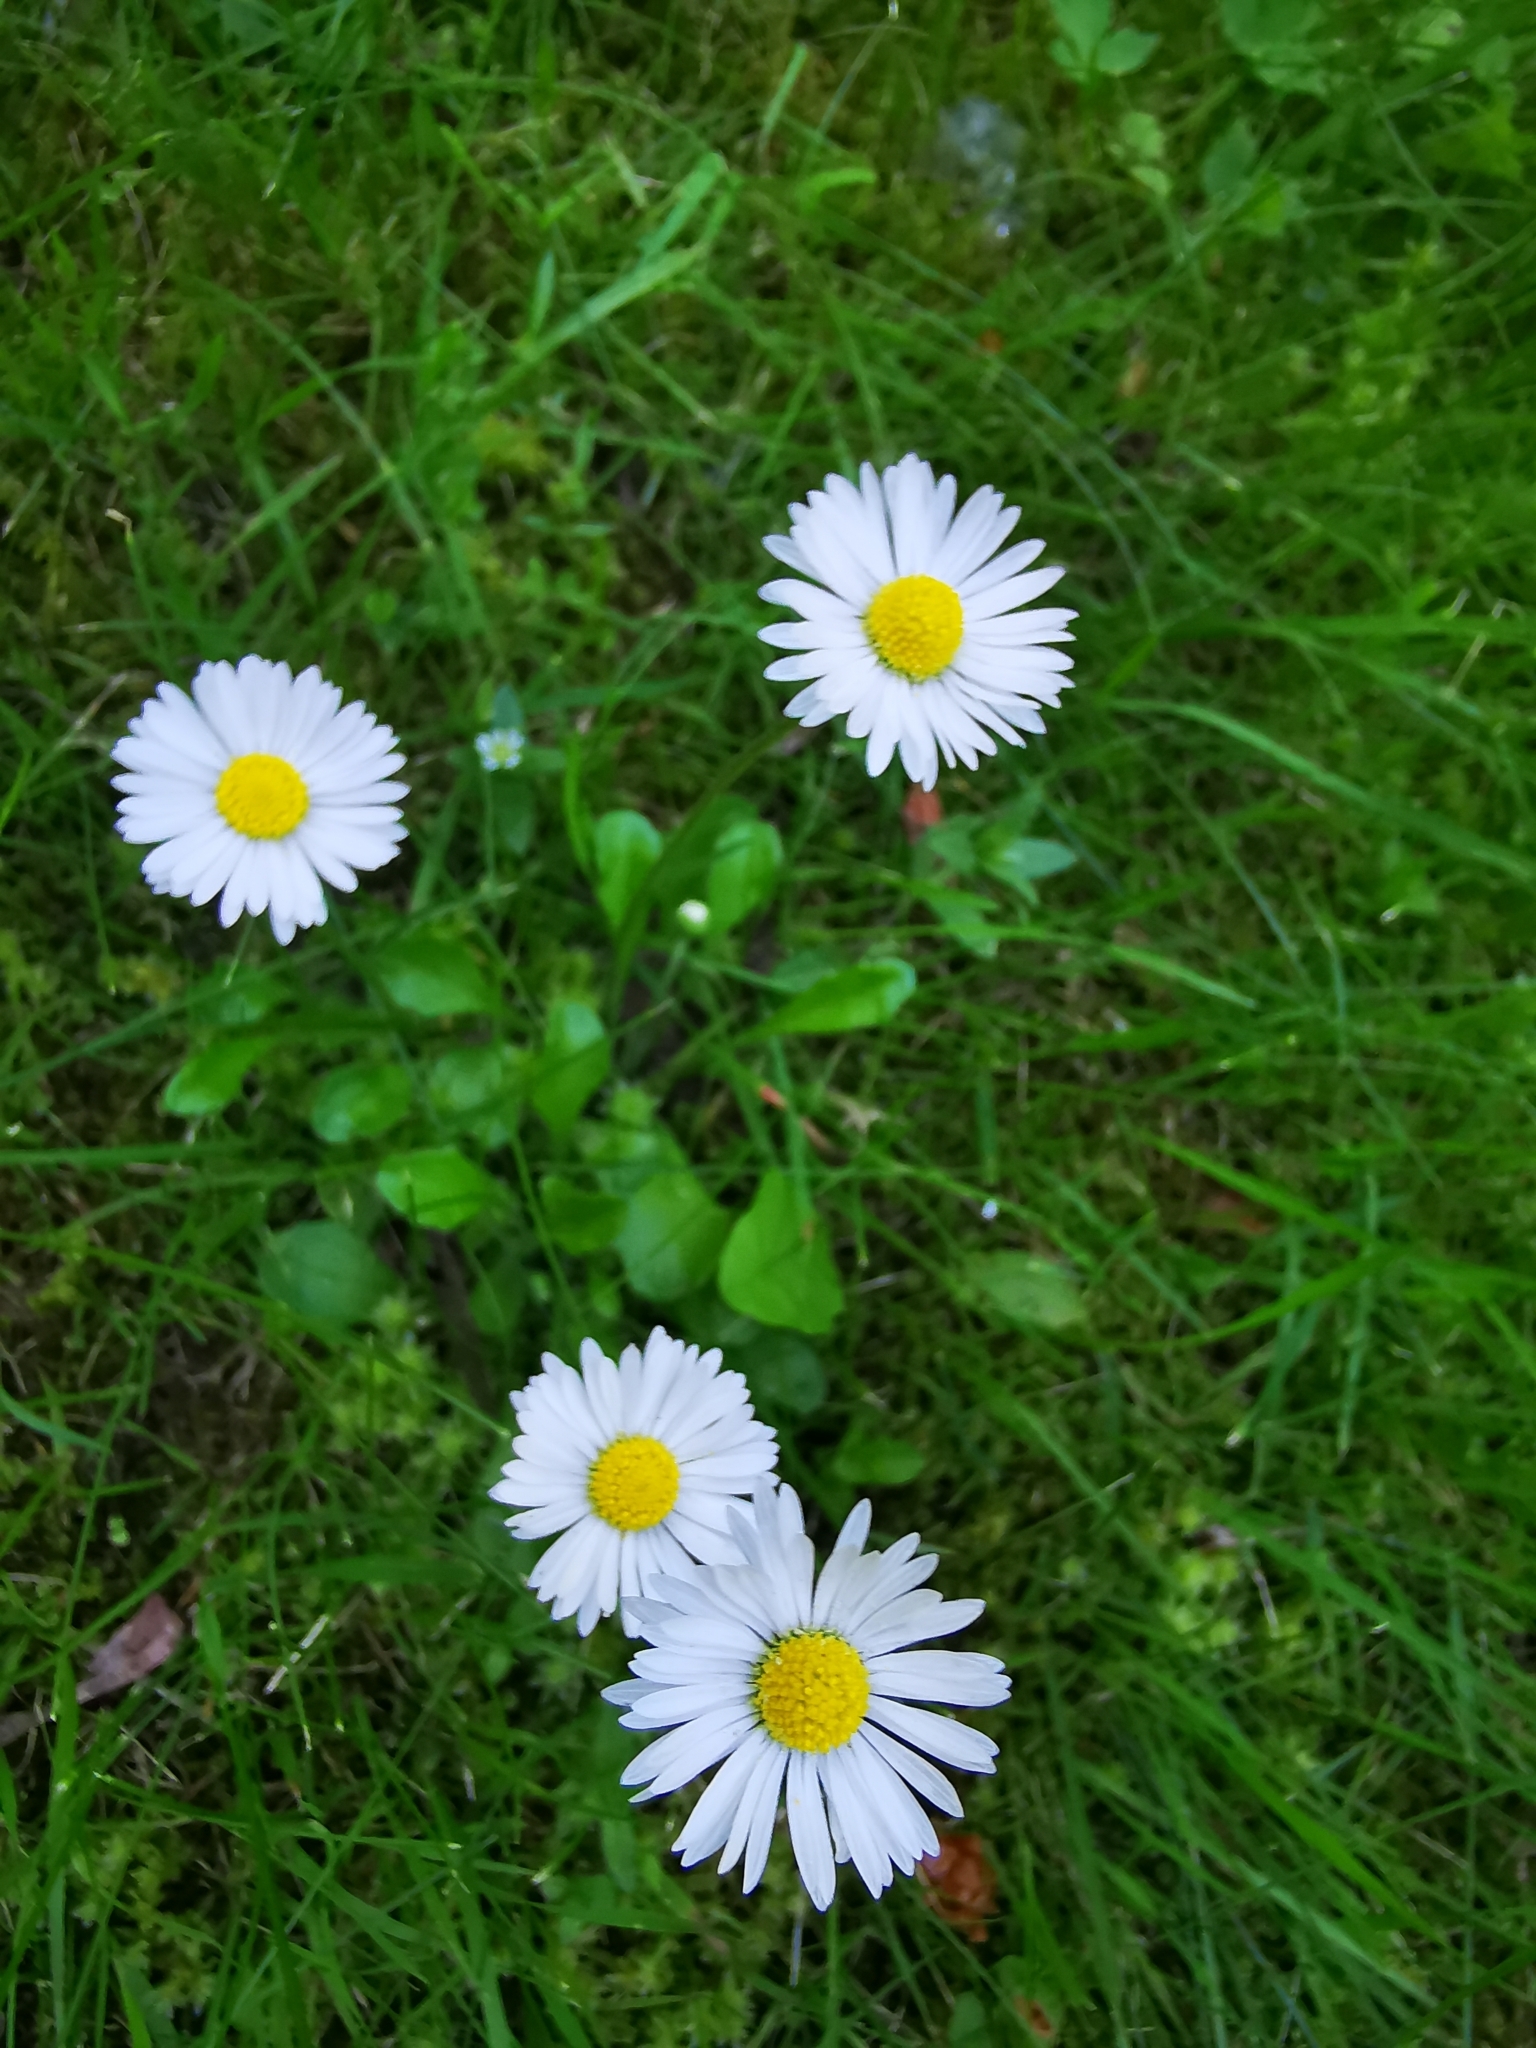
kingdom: Plantae
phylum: Tracheophyta
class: Magnoliopsida
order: Asterales
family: Asteraceae
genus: Bellis
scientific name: Bellis perennis
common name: Lawndaisy
